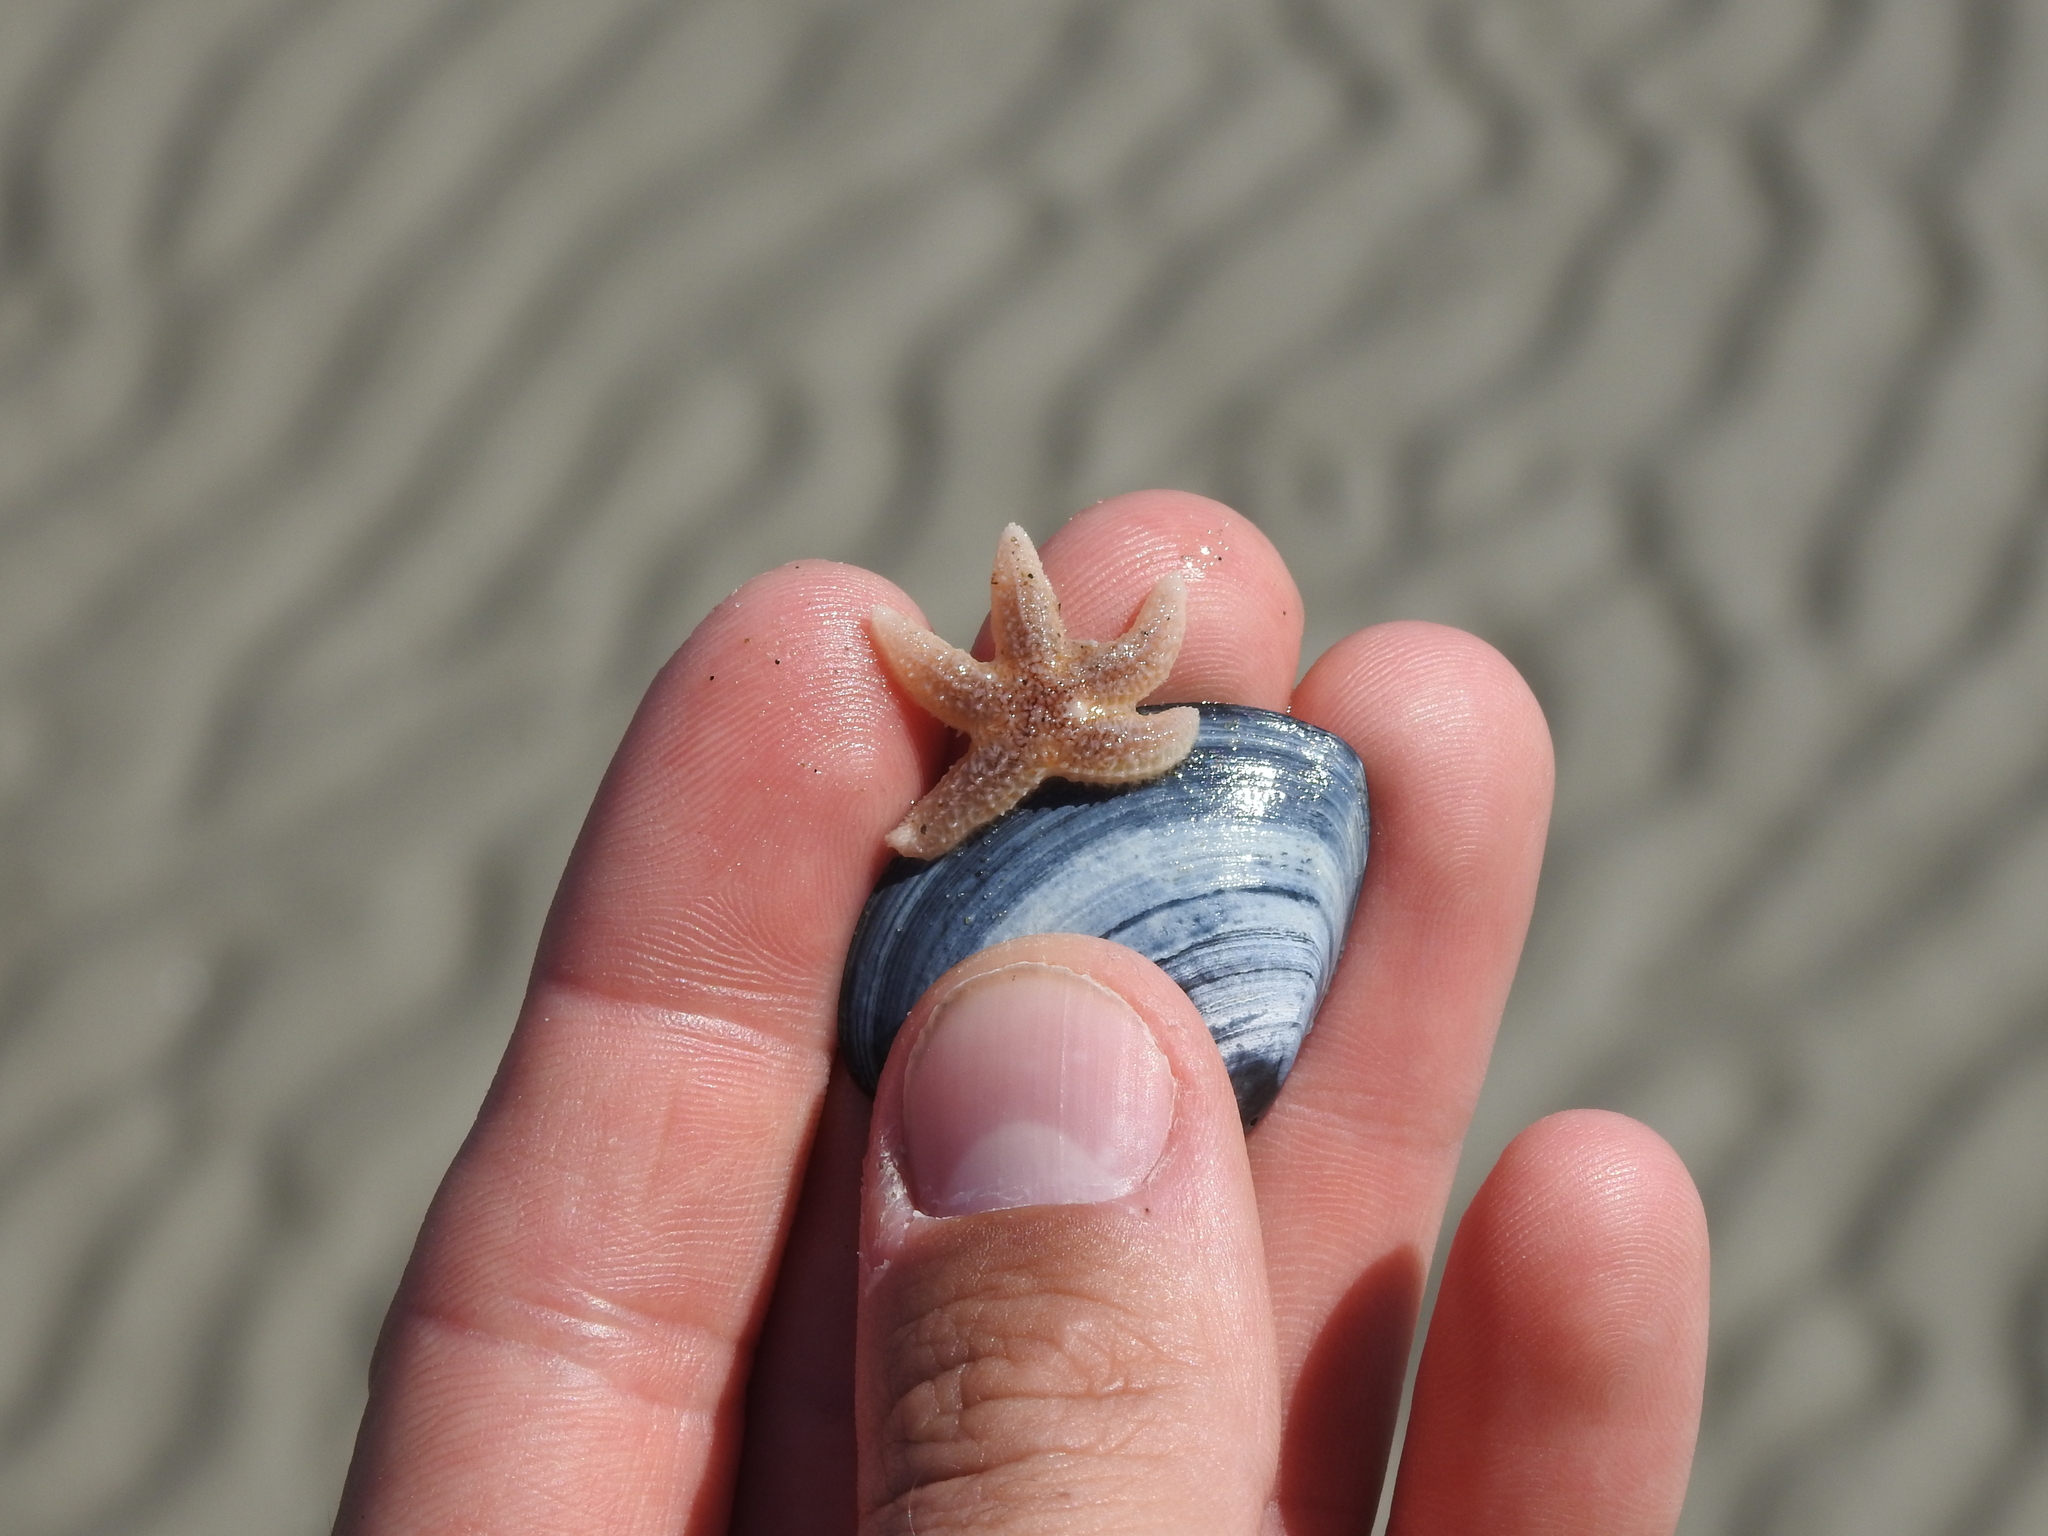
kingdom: Animalia
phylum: Echinodermata
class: Asteroidea
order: Forcipulatida
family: Asteriidae
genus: Asterias
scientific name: Asterias rubens
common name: Common starfish
